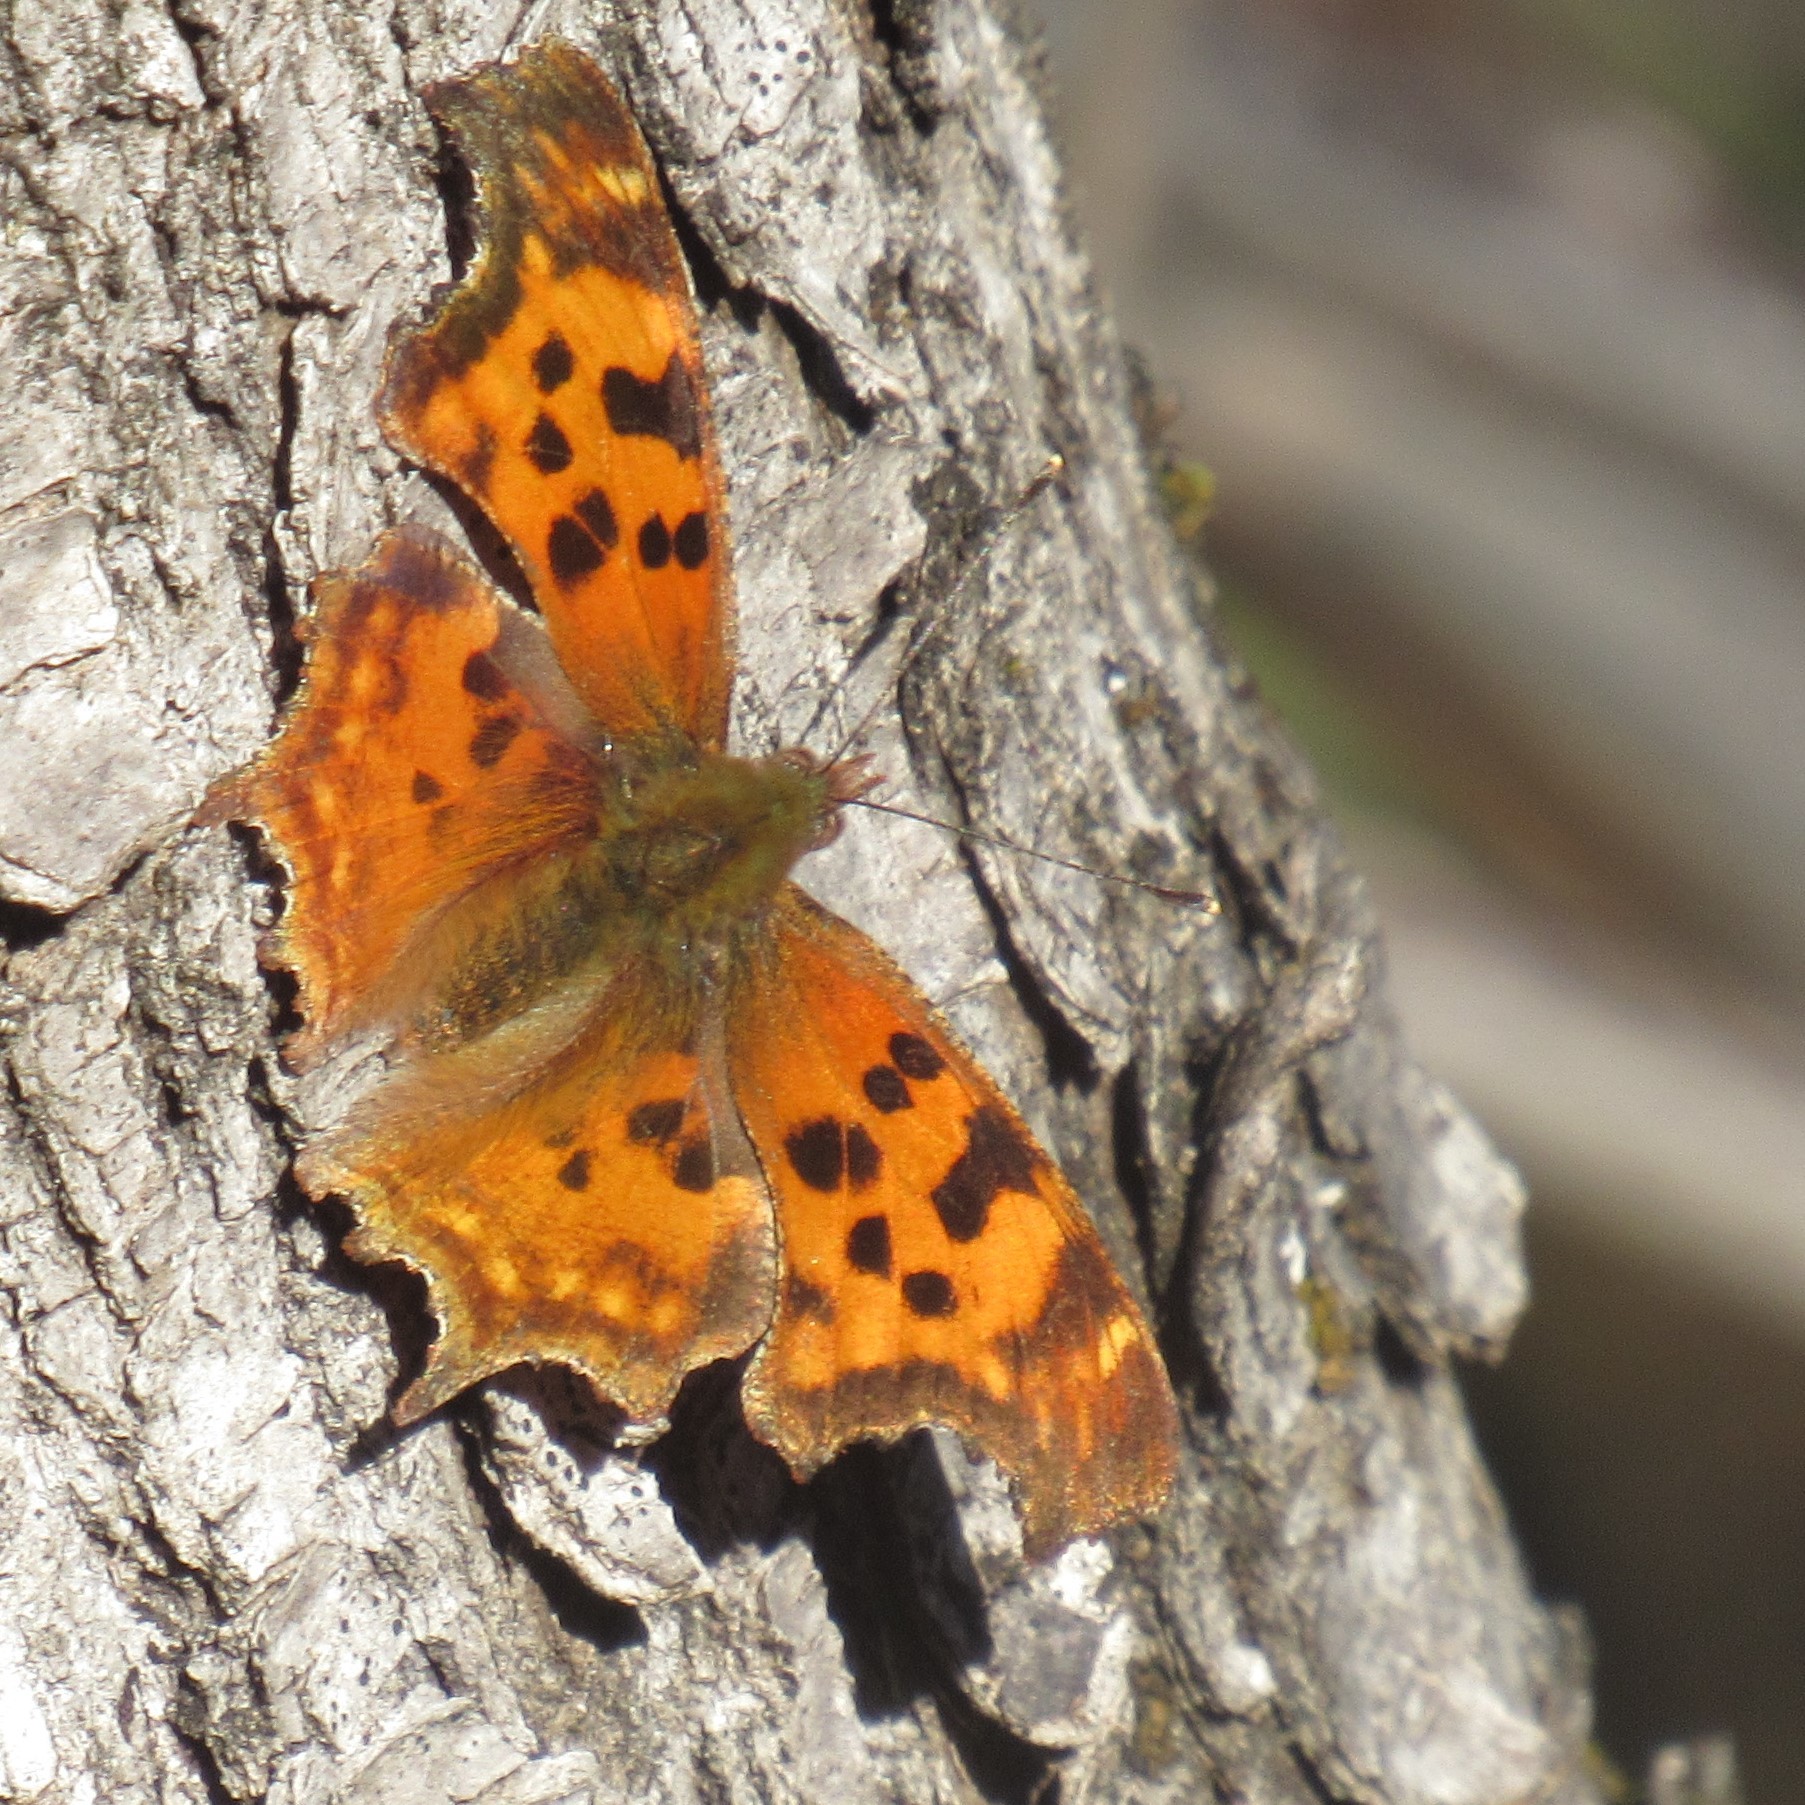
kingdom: Animalia
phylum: Arthropoda
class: Insecta
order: Lepidoptera
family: Nymphalidae
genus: Polygonia
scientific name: Polygonia satyrus
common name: Satyr angle wing
